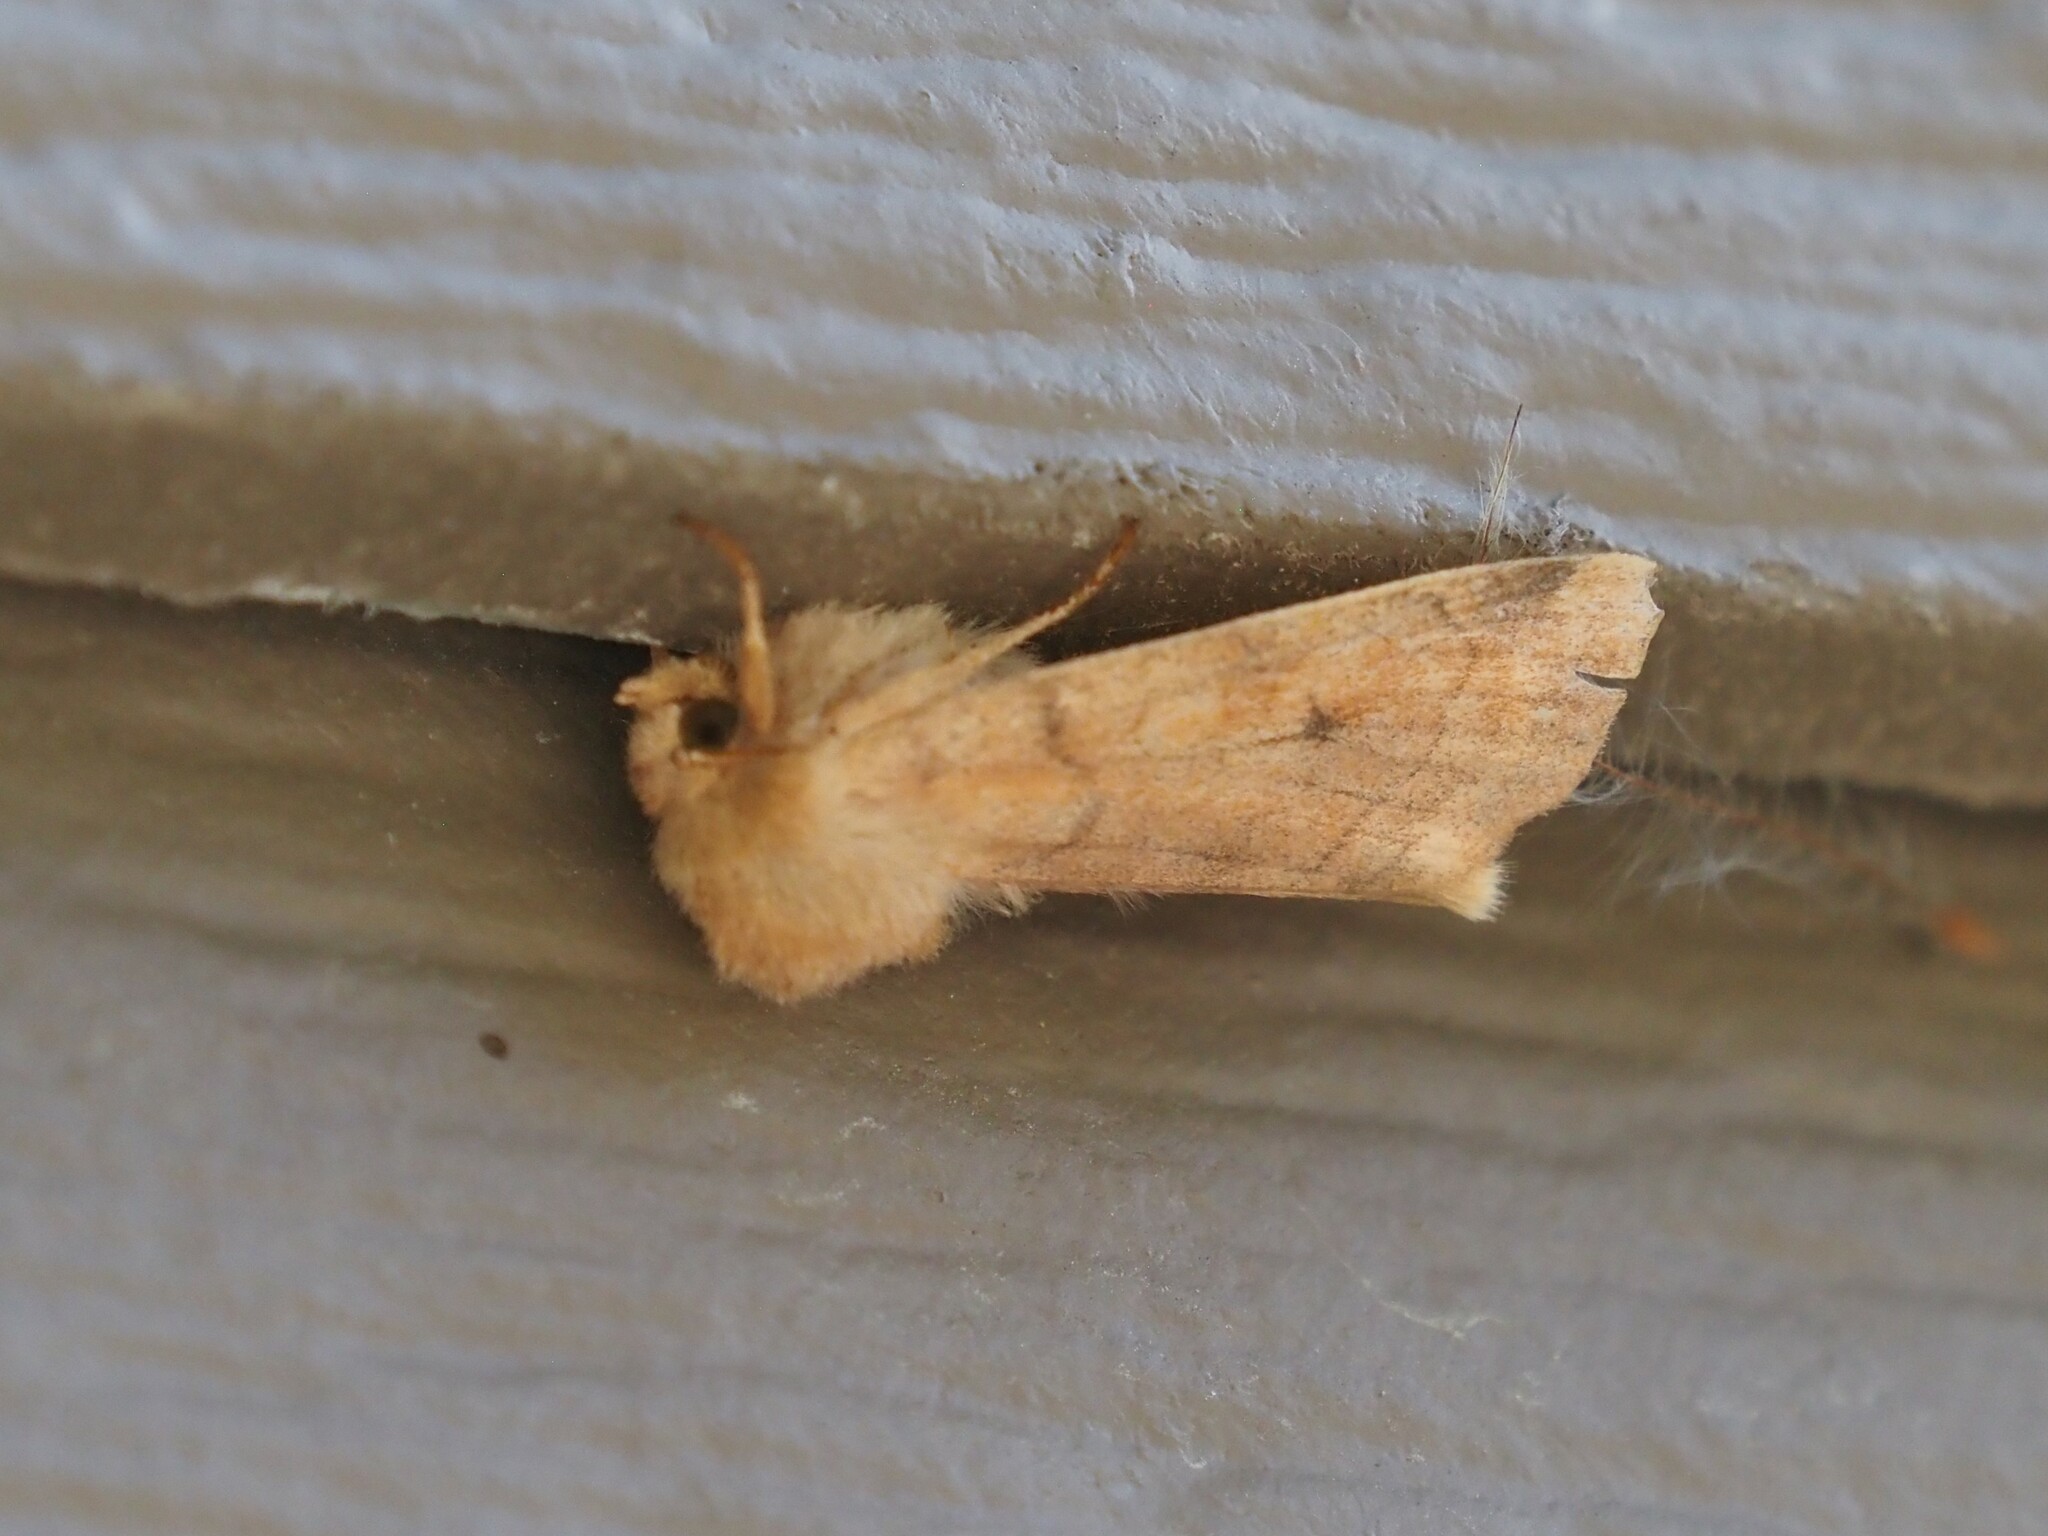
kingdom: Animalia
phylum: Arthropoda
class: Insecta
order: Lepidoptera
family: Noctuidae
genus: Enargia
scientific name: Enargia infumata
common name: Smoked sallow
